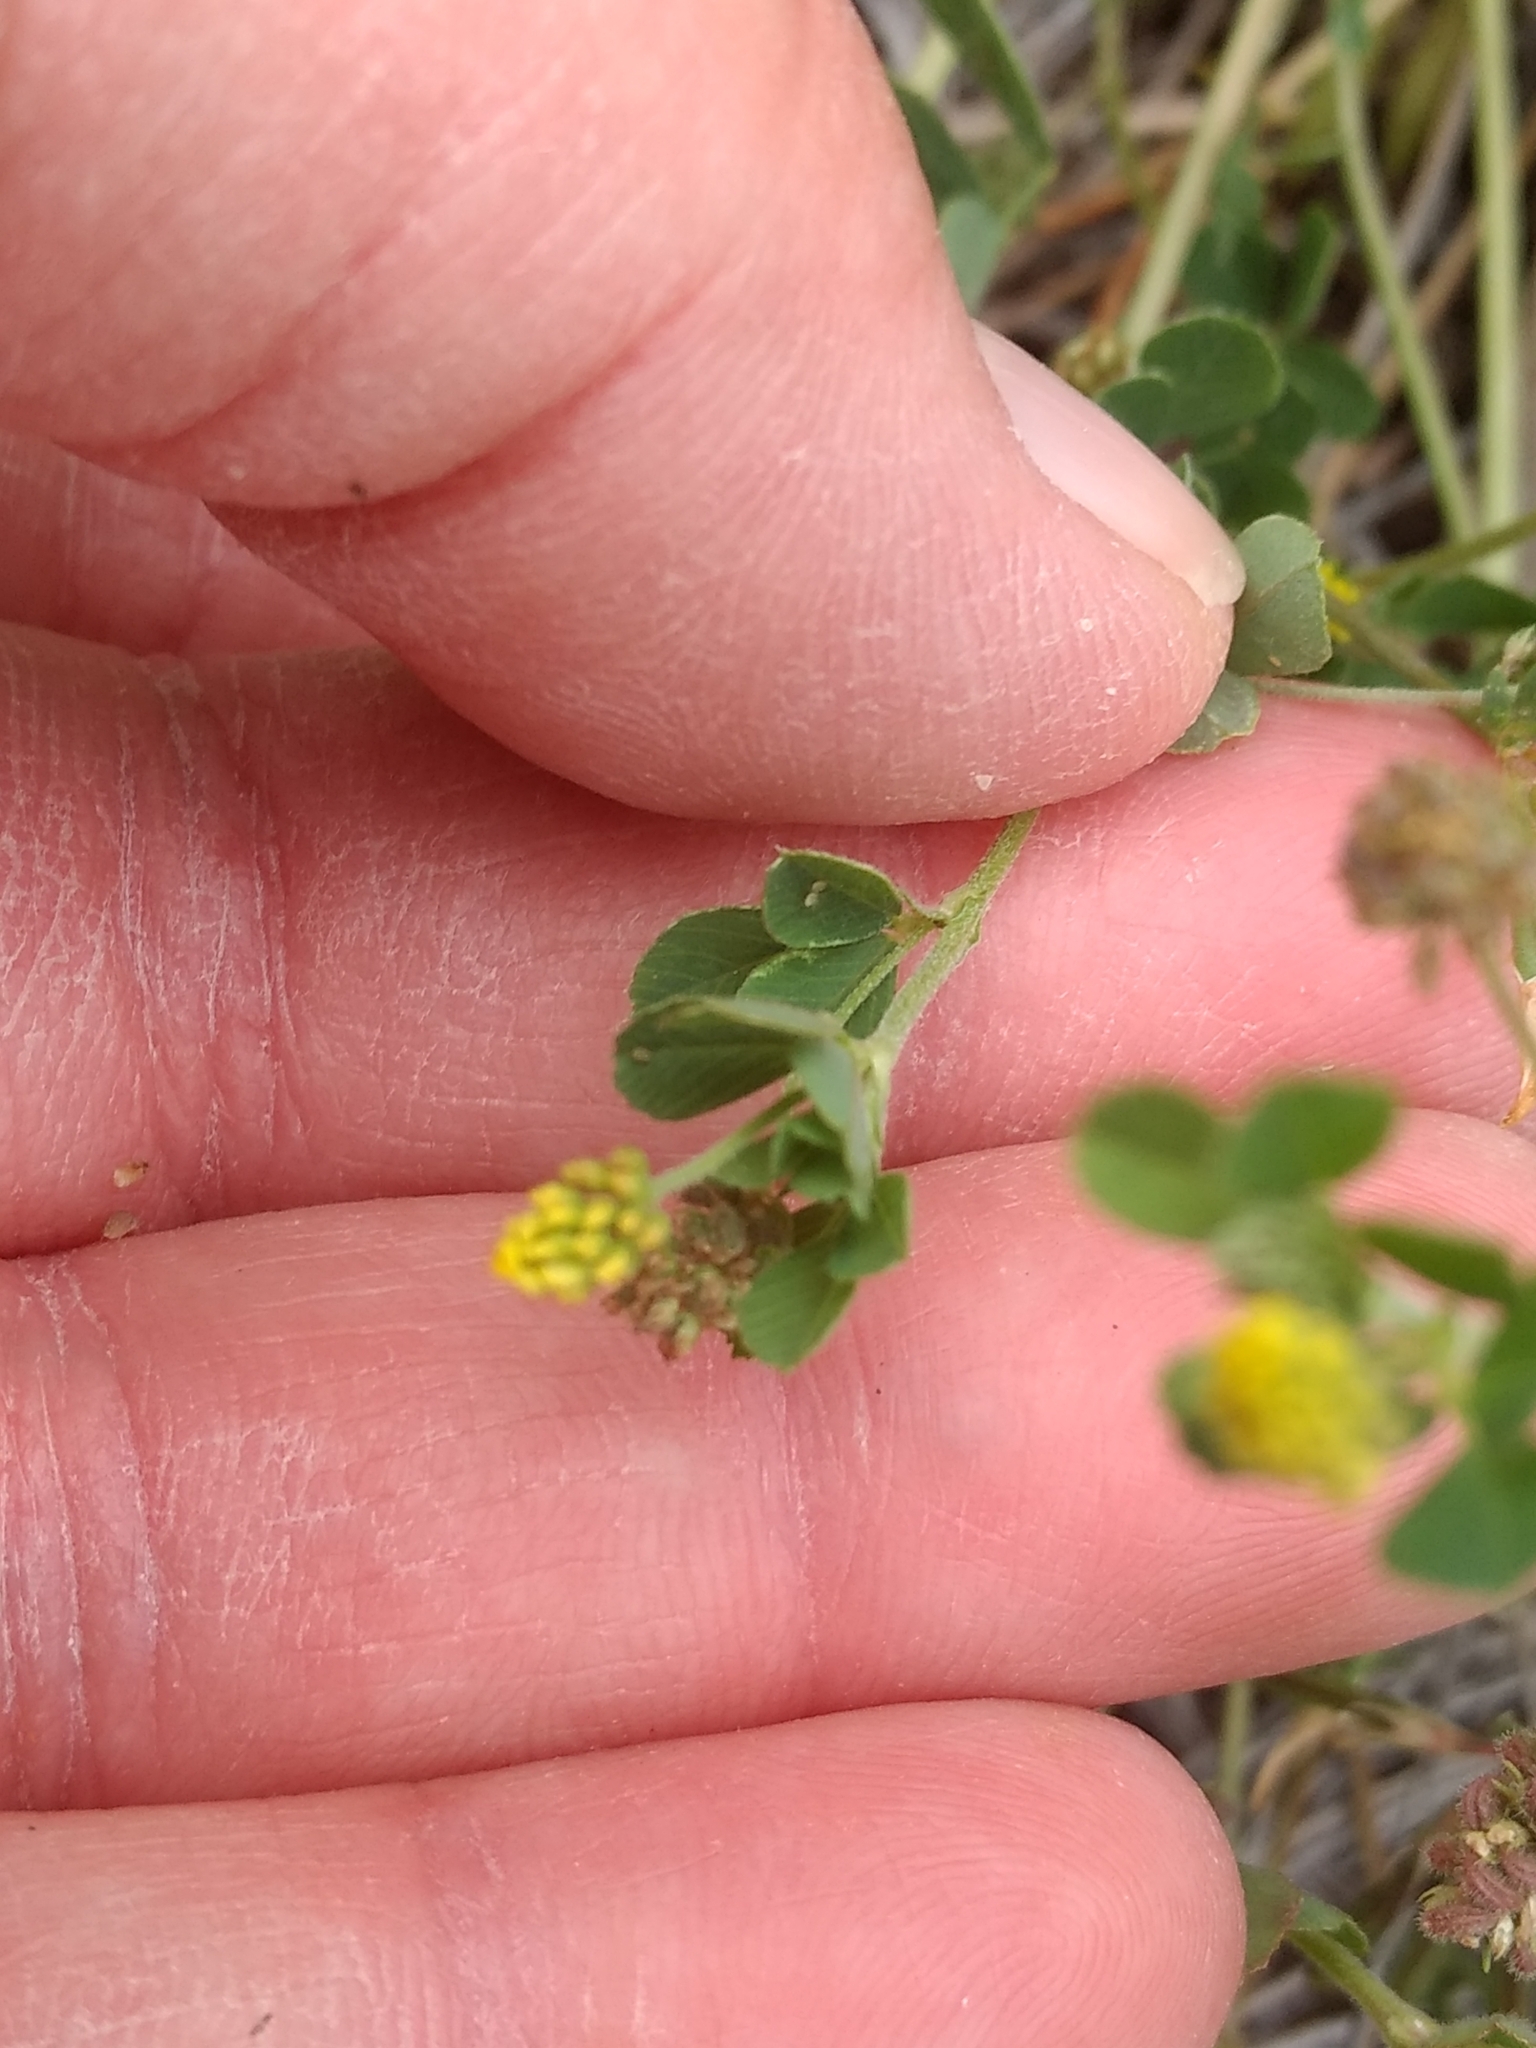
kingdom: Plantae
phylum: Tracheophyta
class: Magnoliopsida
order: Fabales
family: Fabaceae
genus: Medicago
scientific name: Medicago lupulina
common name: Black medick
